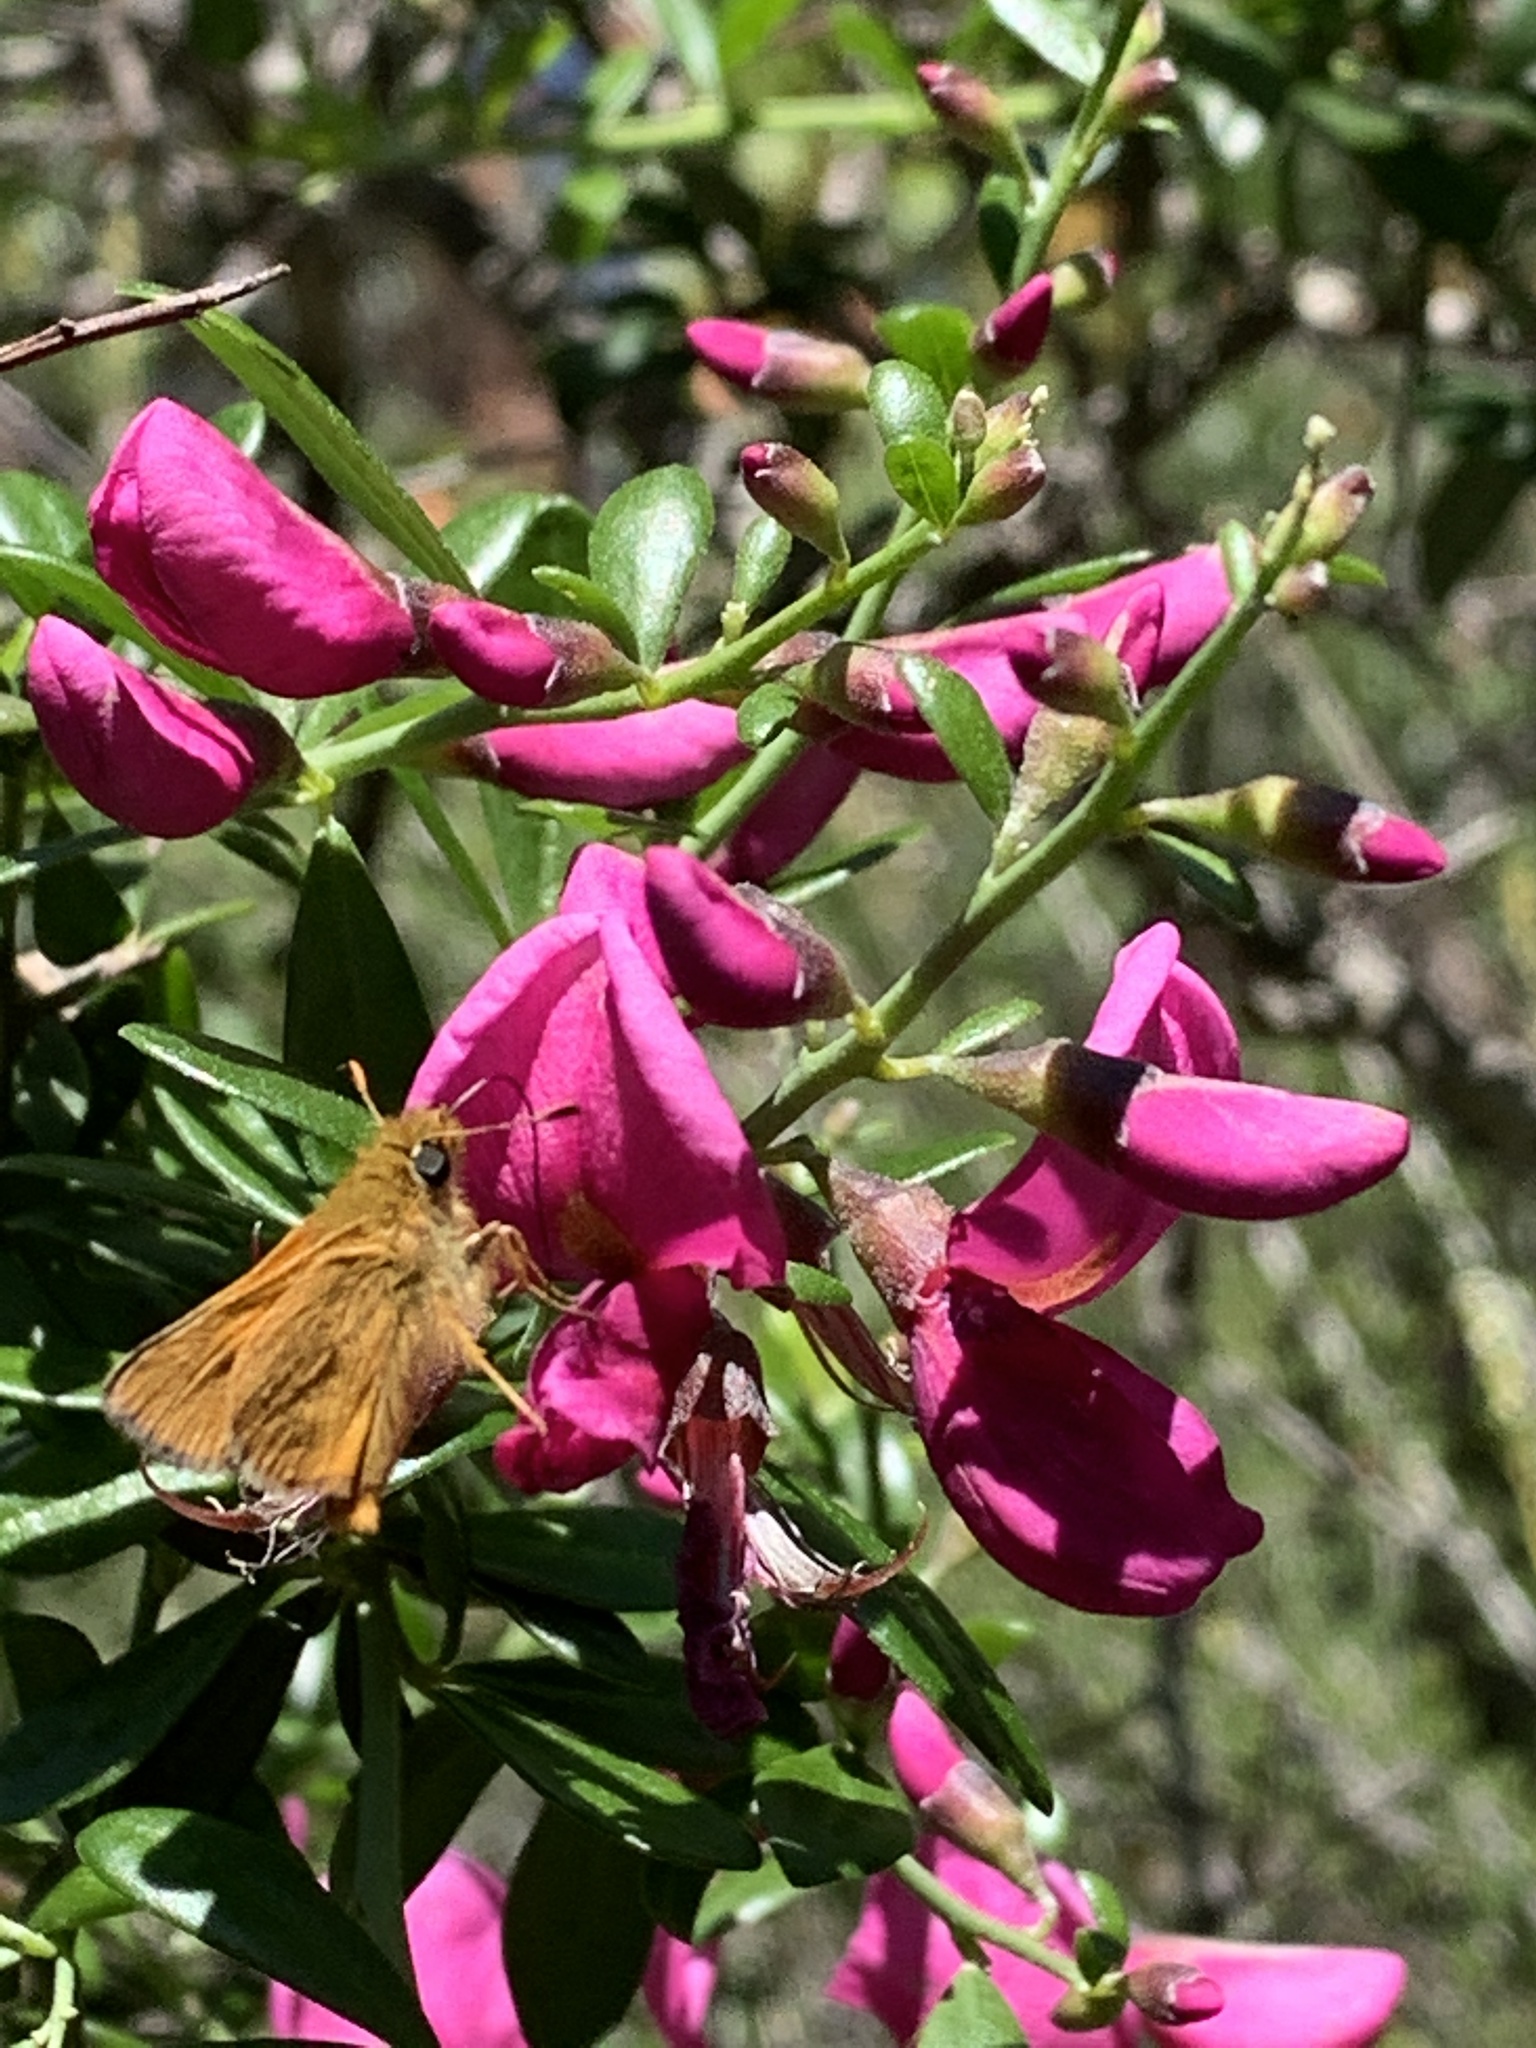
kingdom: Animalia
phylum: Arthropoda
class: Insecta
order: Lepidoptera
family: Hesperiidae
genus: Ochlodes
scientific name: Ochlodes agricola
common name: Rural skipper
